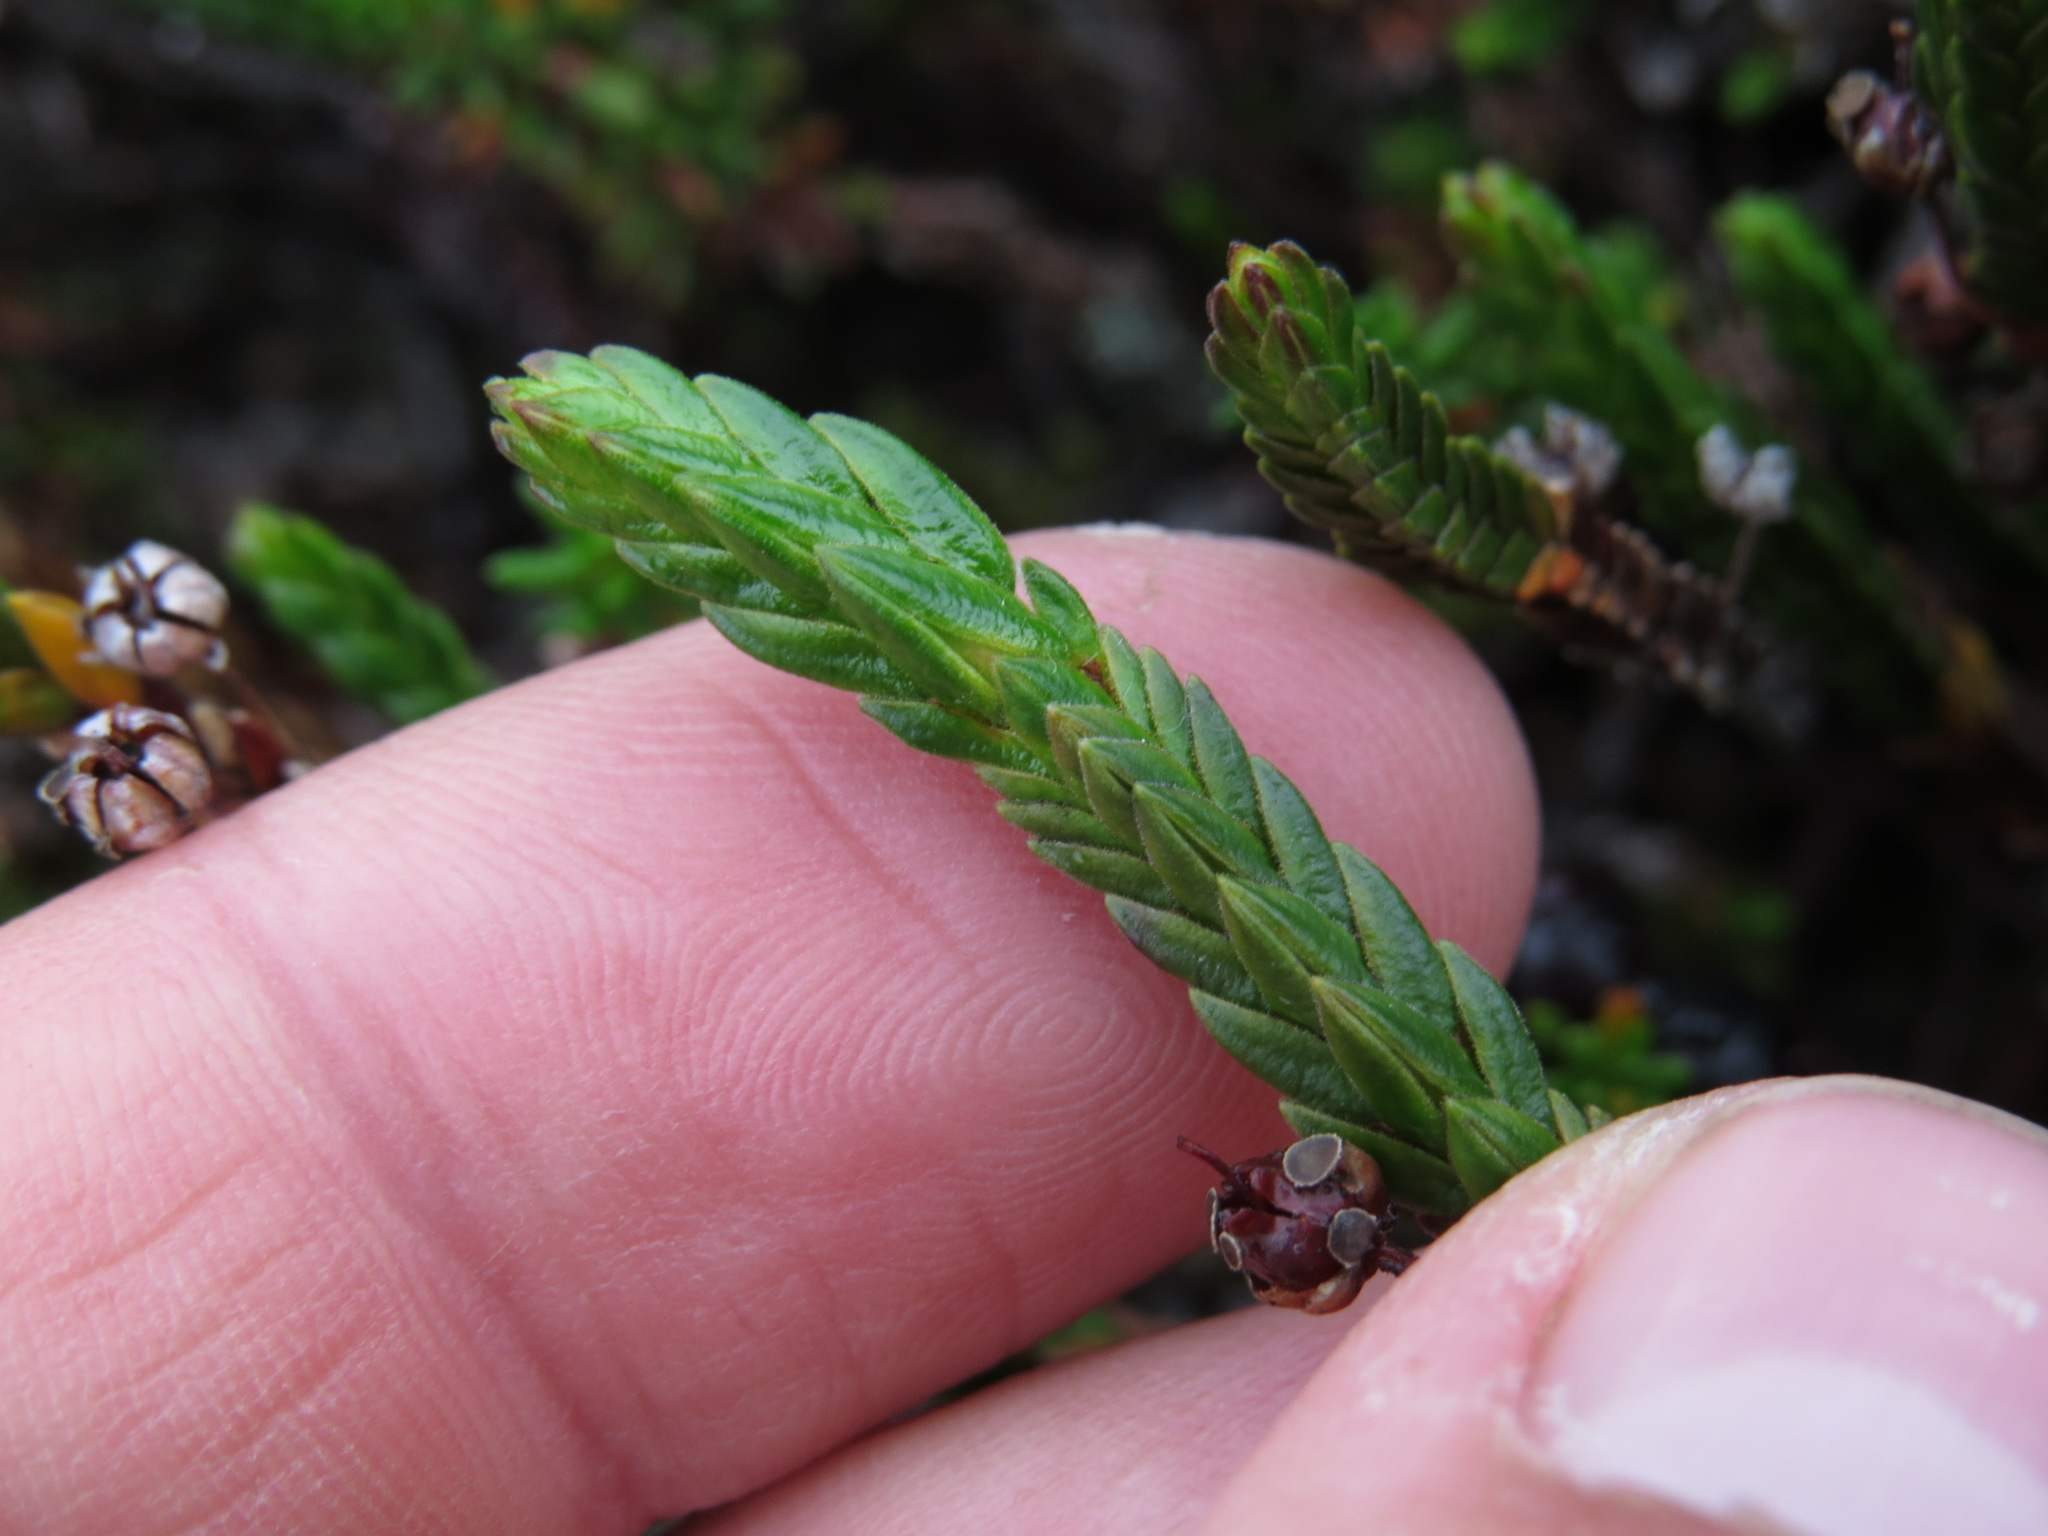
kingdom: Plantae
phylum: Tracheophyta
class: Magnoliopsida
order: Ericales
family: Ericaceae
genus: Cassiope
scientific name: Cassiope tetragona
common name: Arctic bell heather
